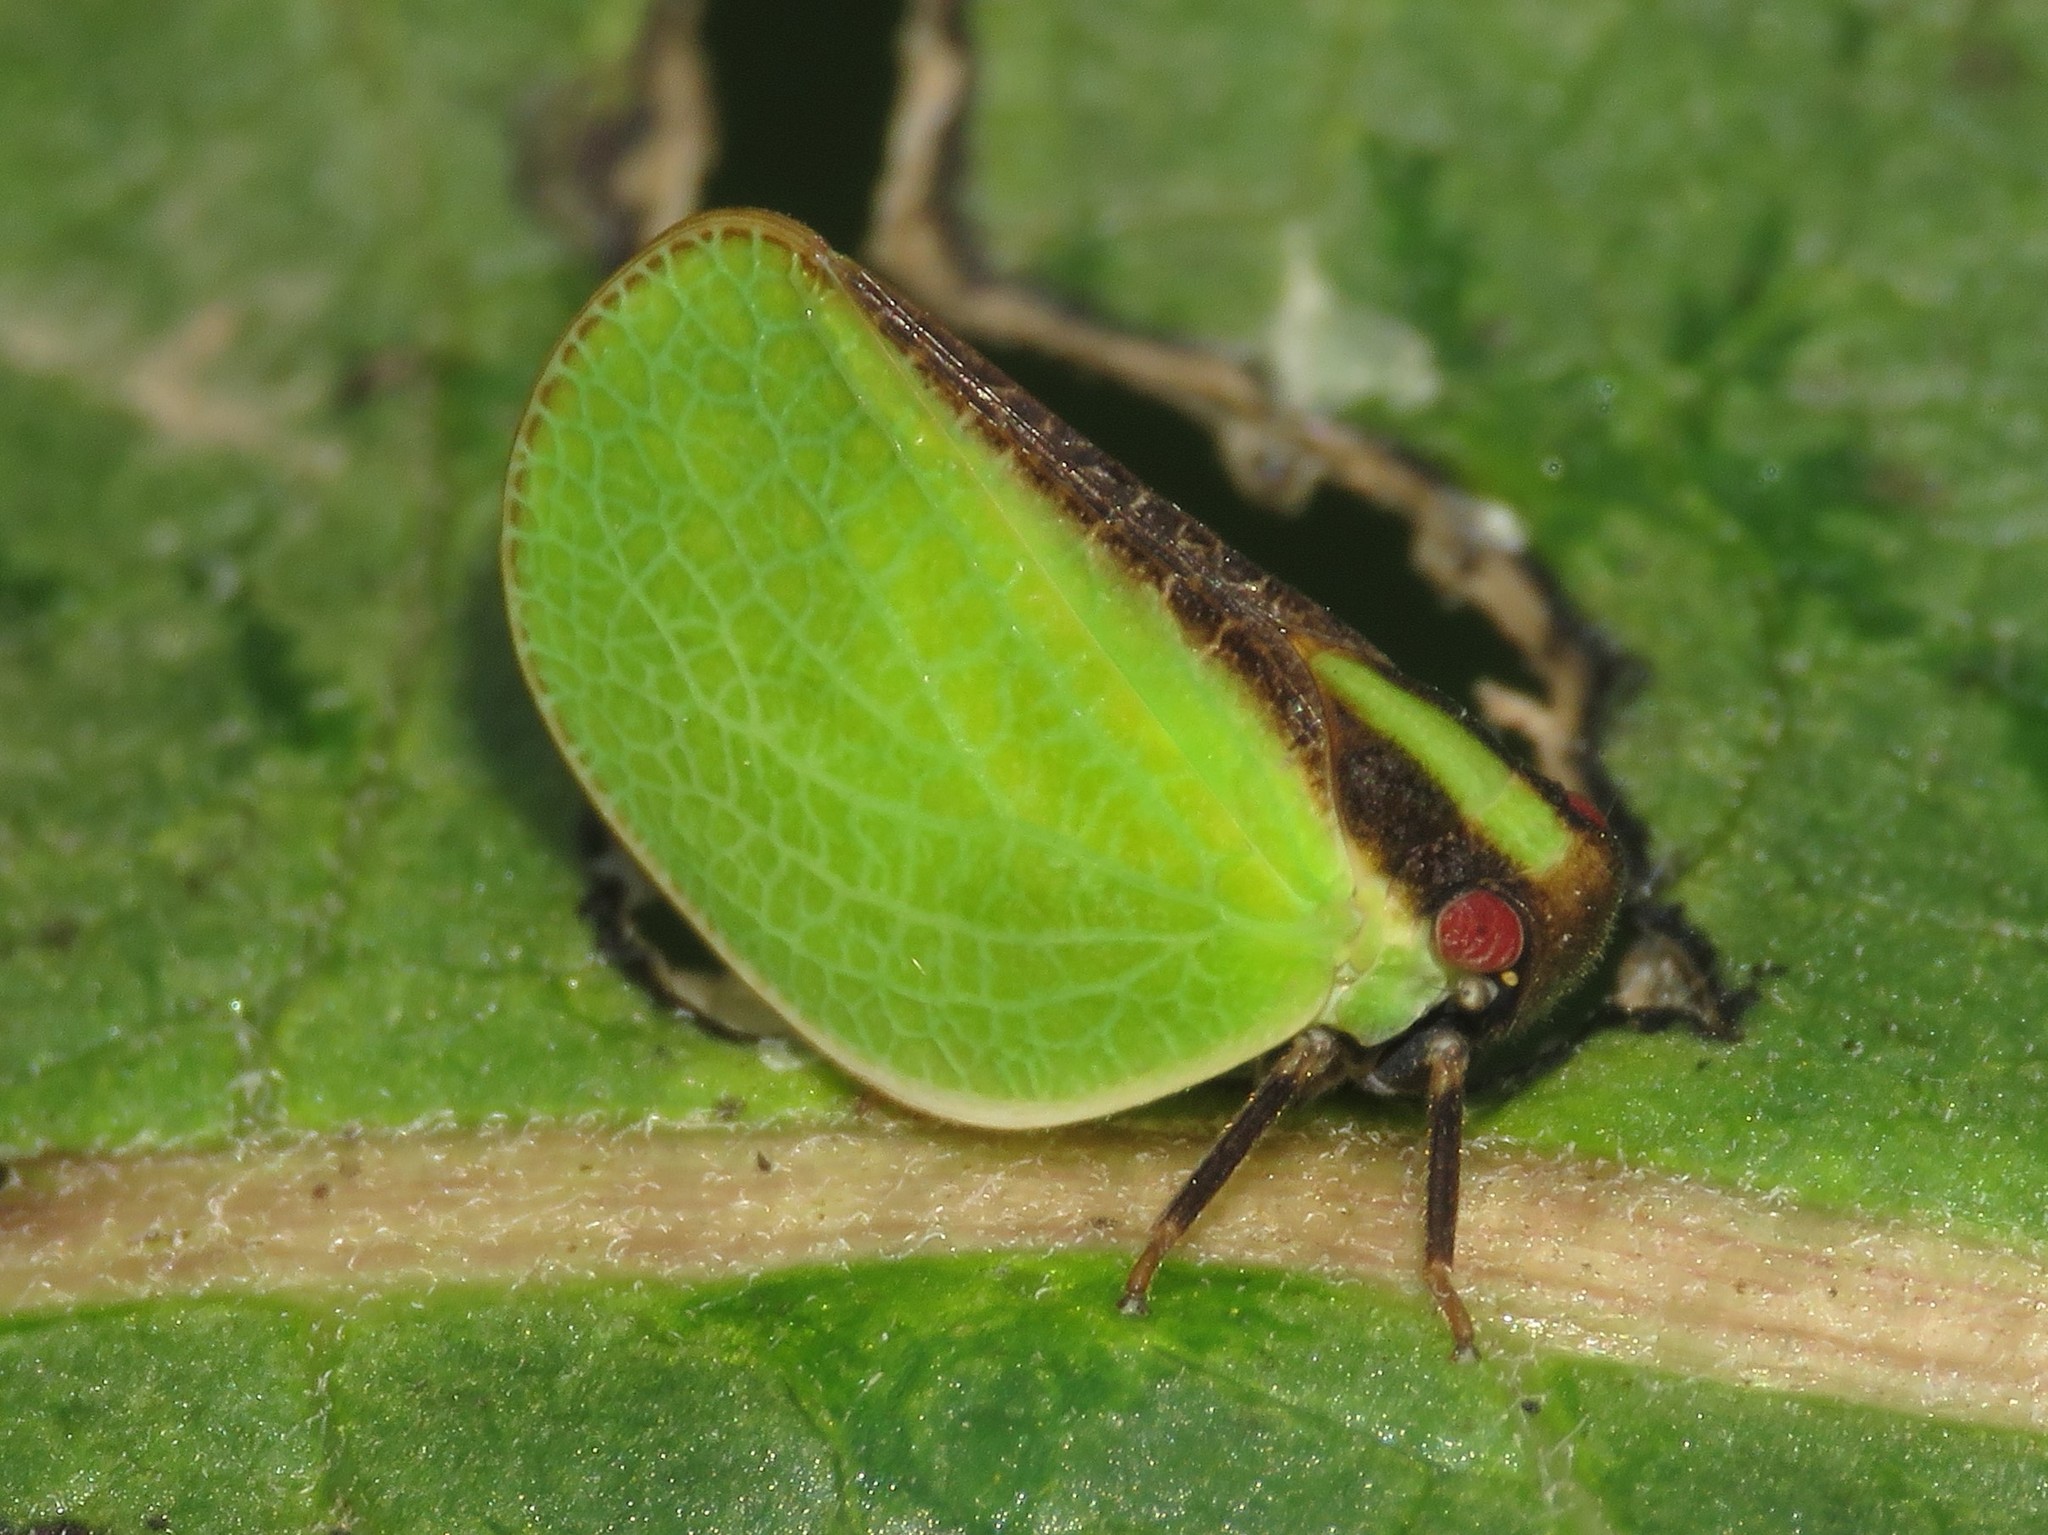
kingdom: Animalia
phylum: Arthropoda
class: Insecta
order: Hemiptera
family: Acanaloniidae
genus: Acanalonia
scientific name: Acanalonia bivittata
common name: Two-striped planthopper
